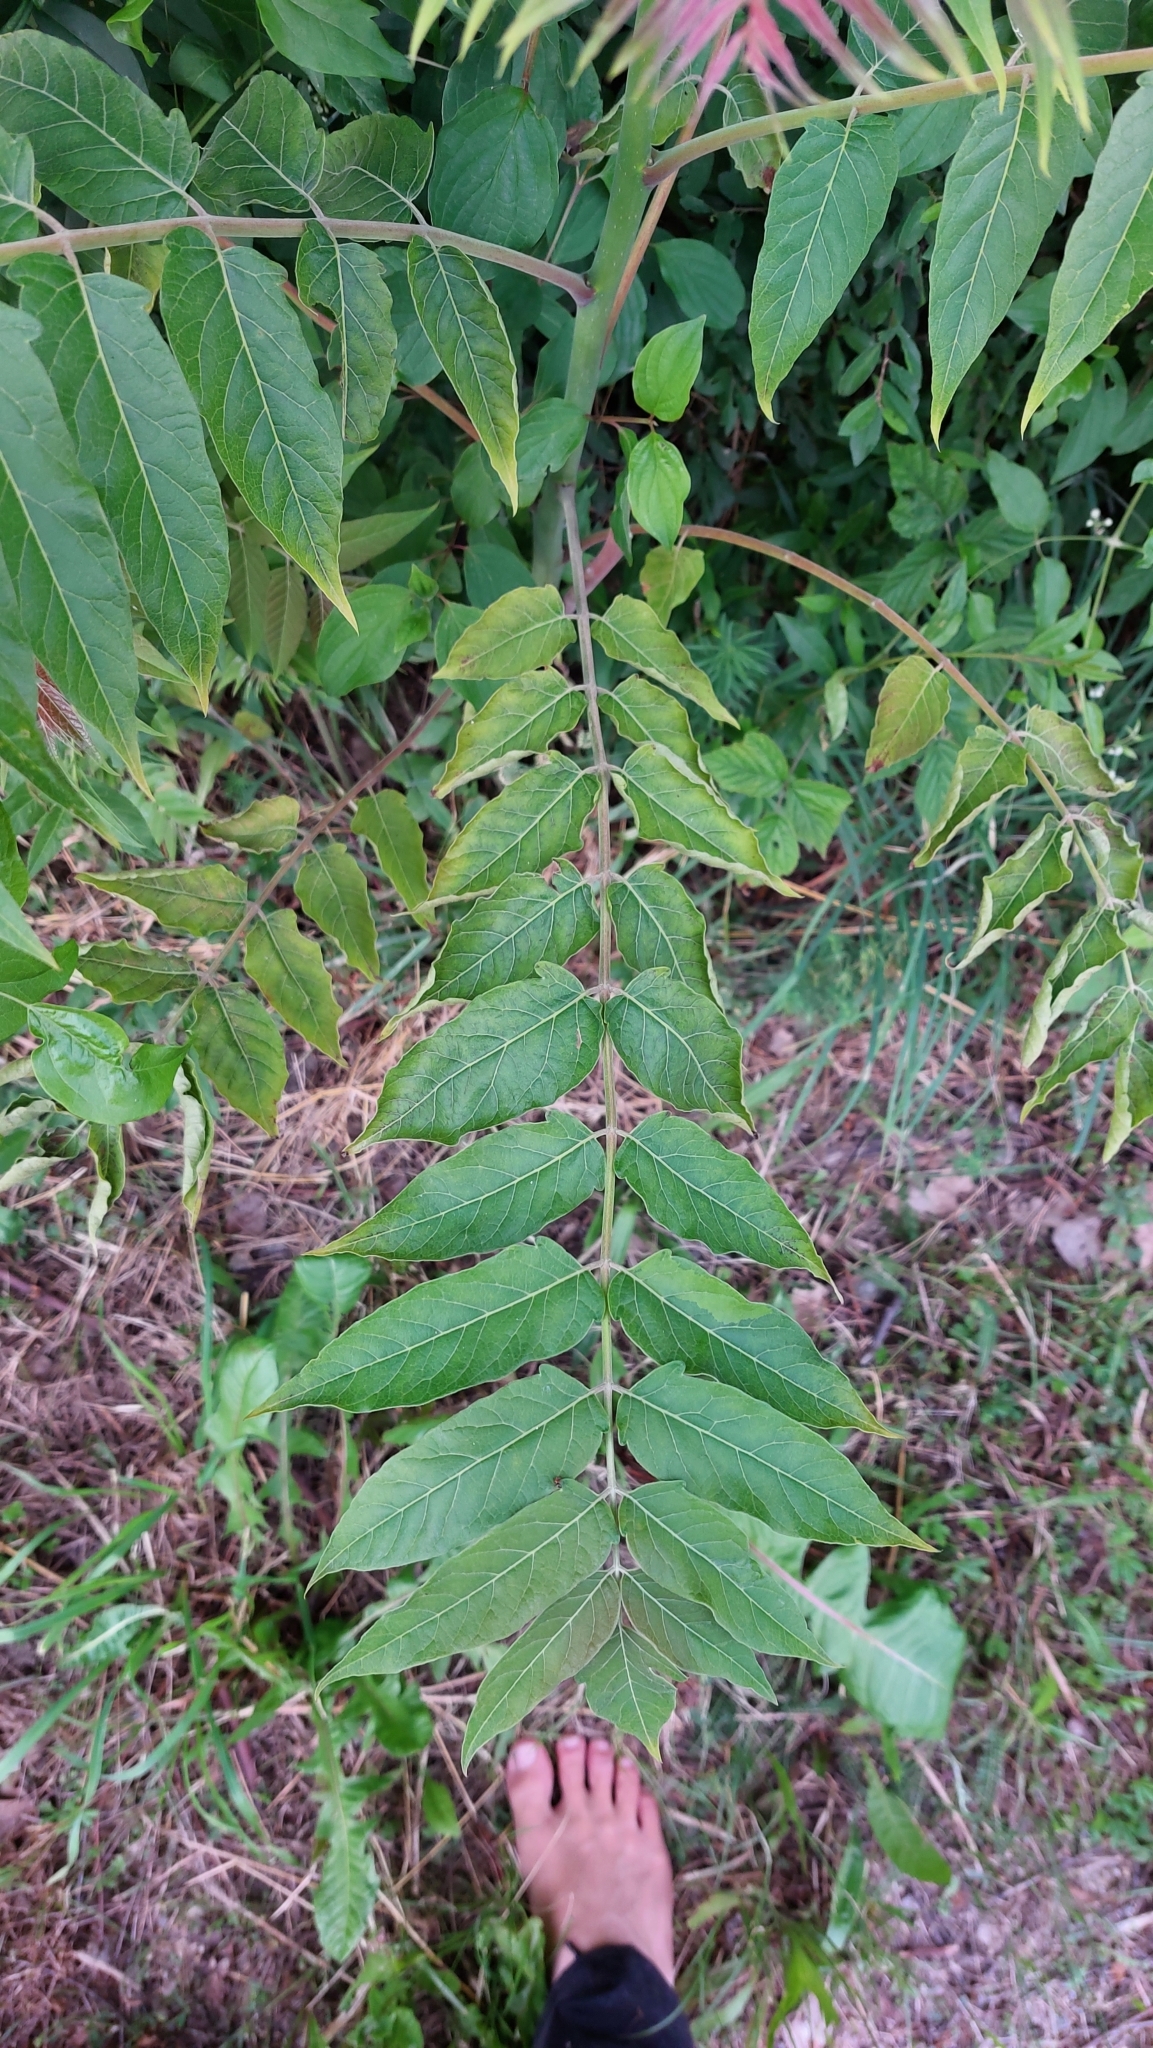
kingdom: Plantae
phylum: Tracheophyta
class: Magnoliopsida
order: Sapindales
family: Simaroubaceae
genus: Ailanthus
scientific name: Ailanthus altissima
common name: Tree-of-heaven
